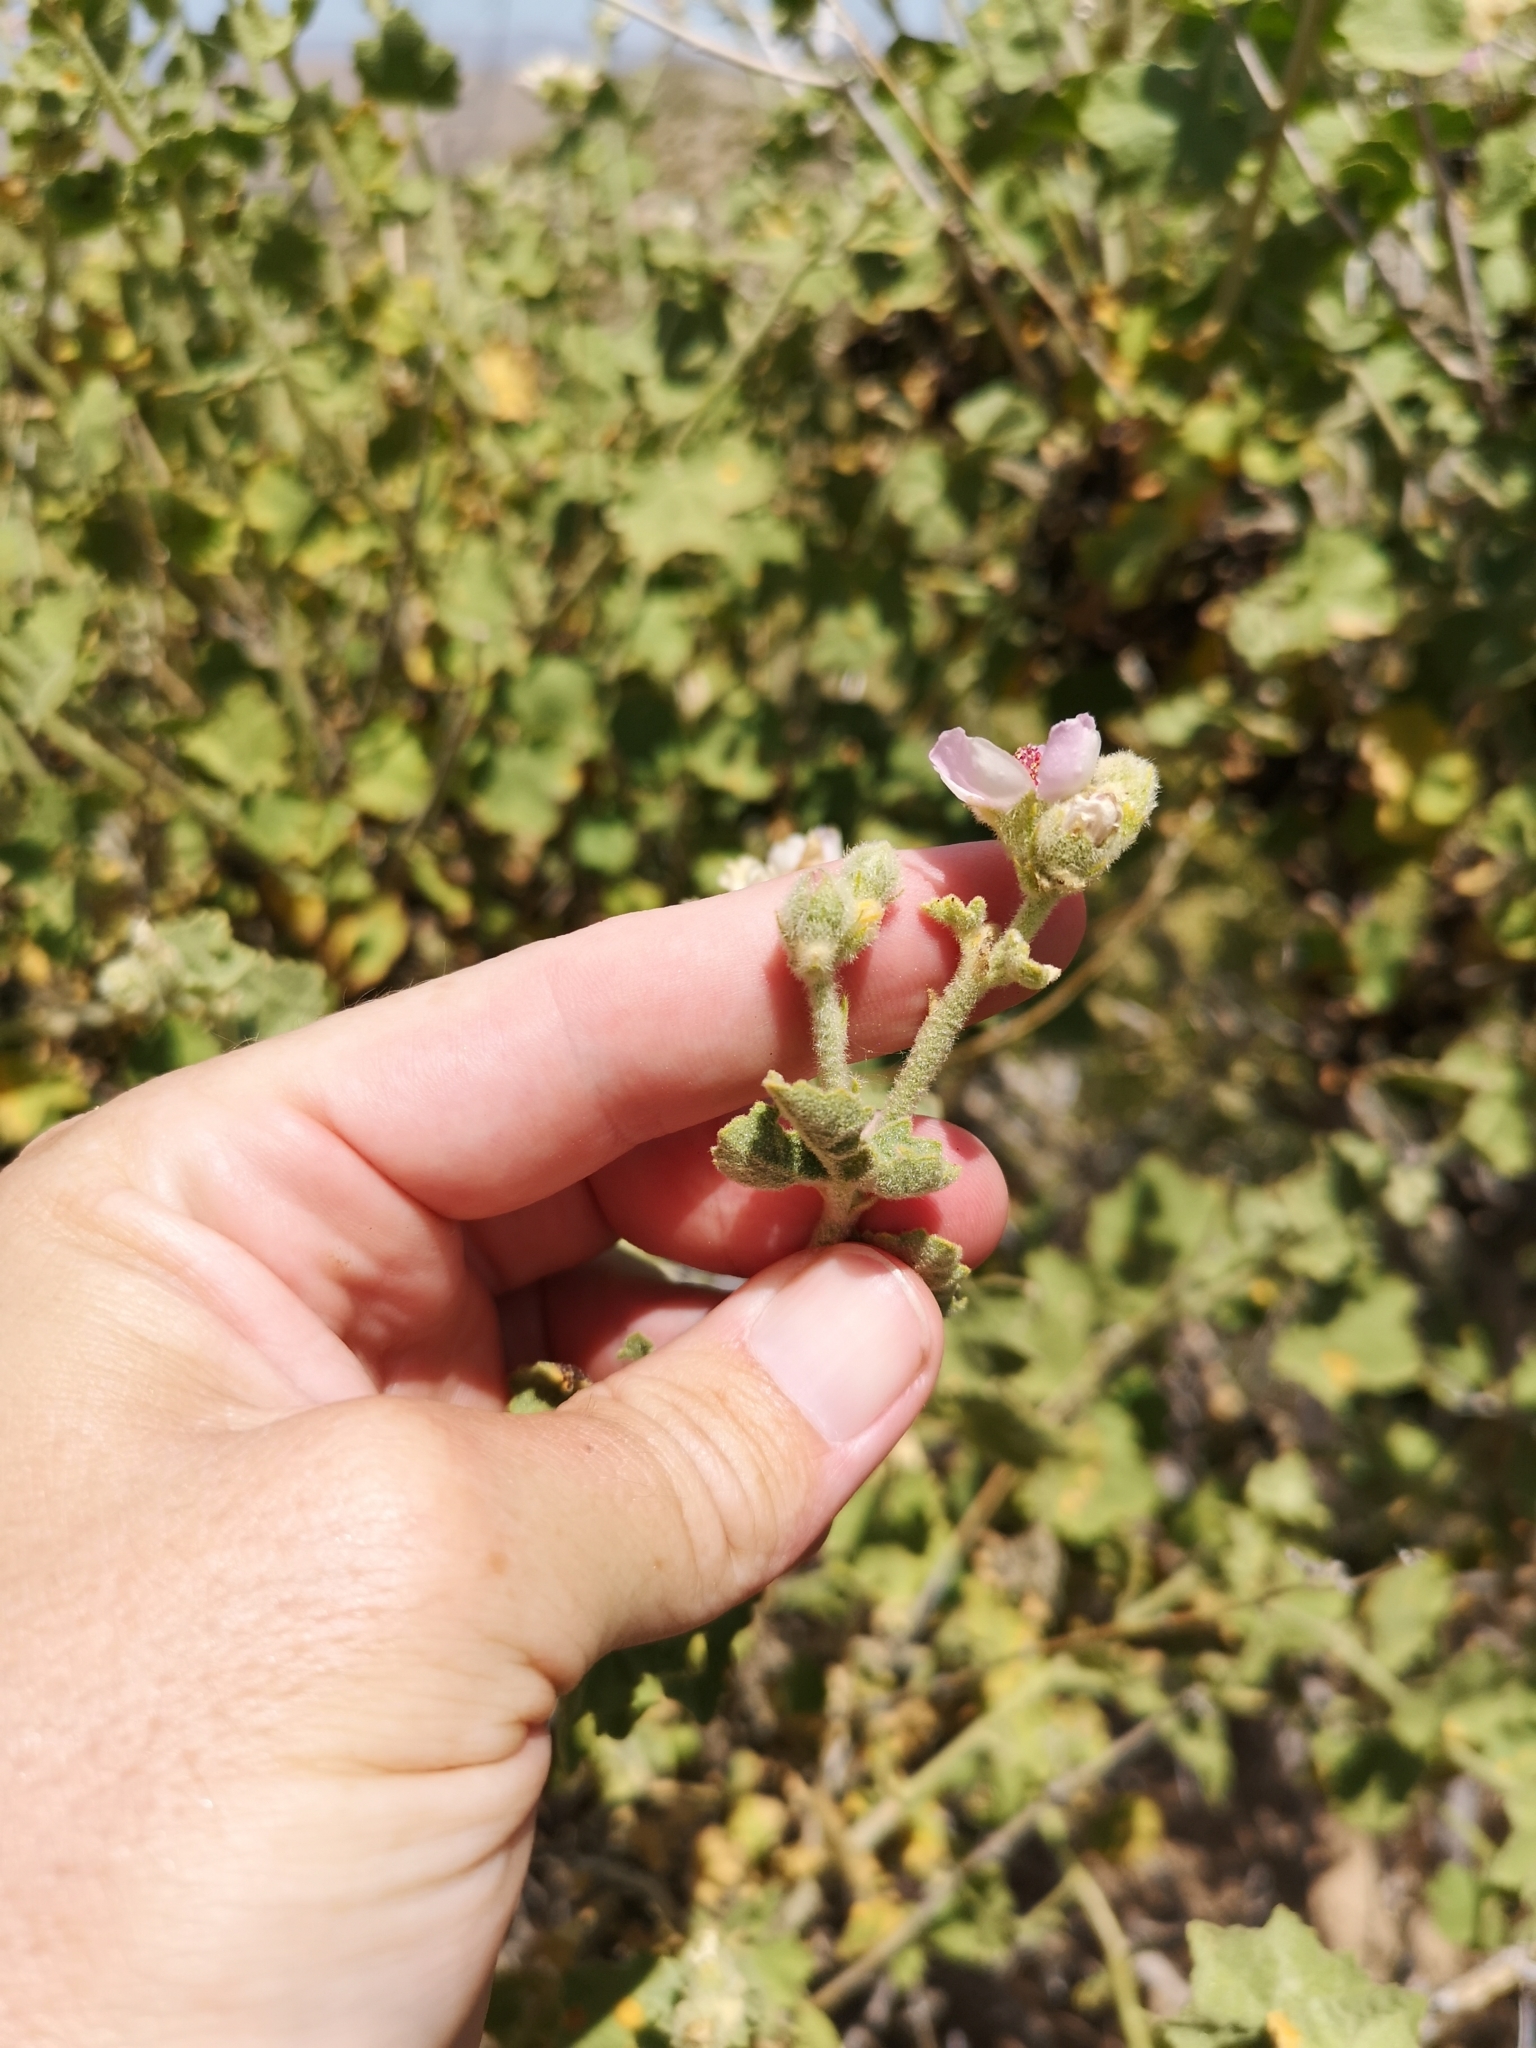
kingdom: Plantae
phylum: Tracheophyta
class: Magnoliopsida
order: Malvales
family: Malvaceae
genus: Malacothamnus
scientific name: Malacothamnus fremontii
